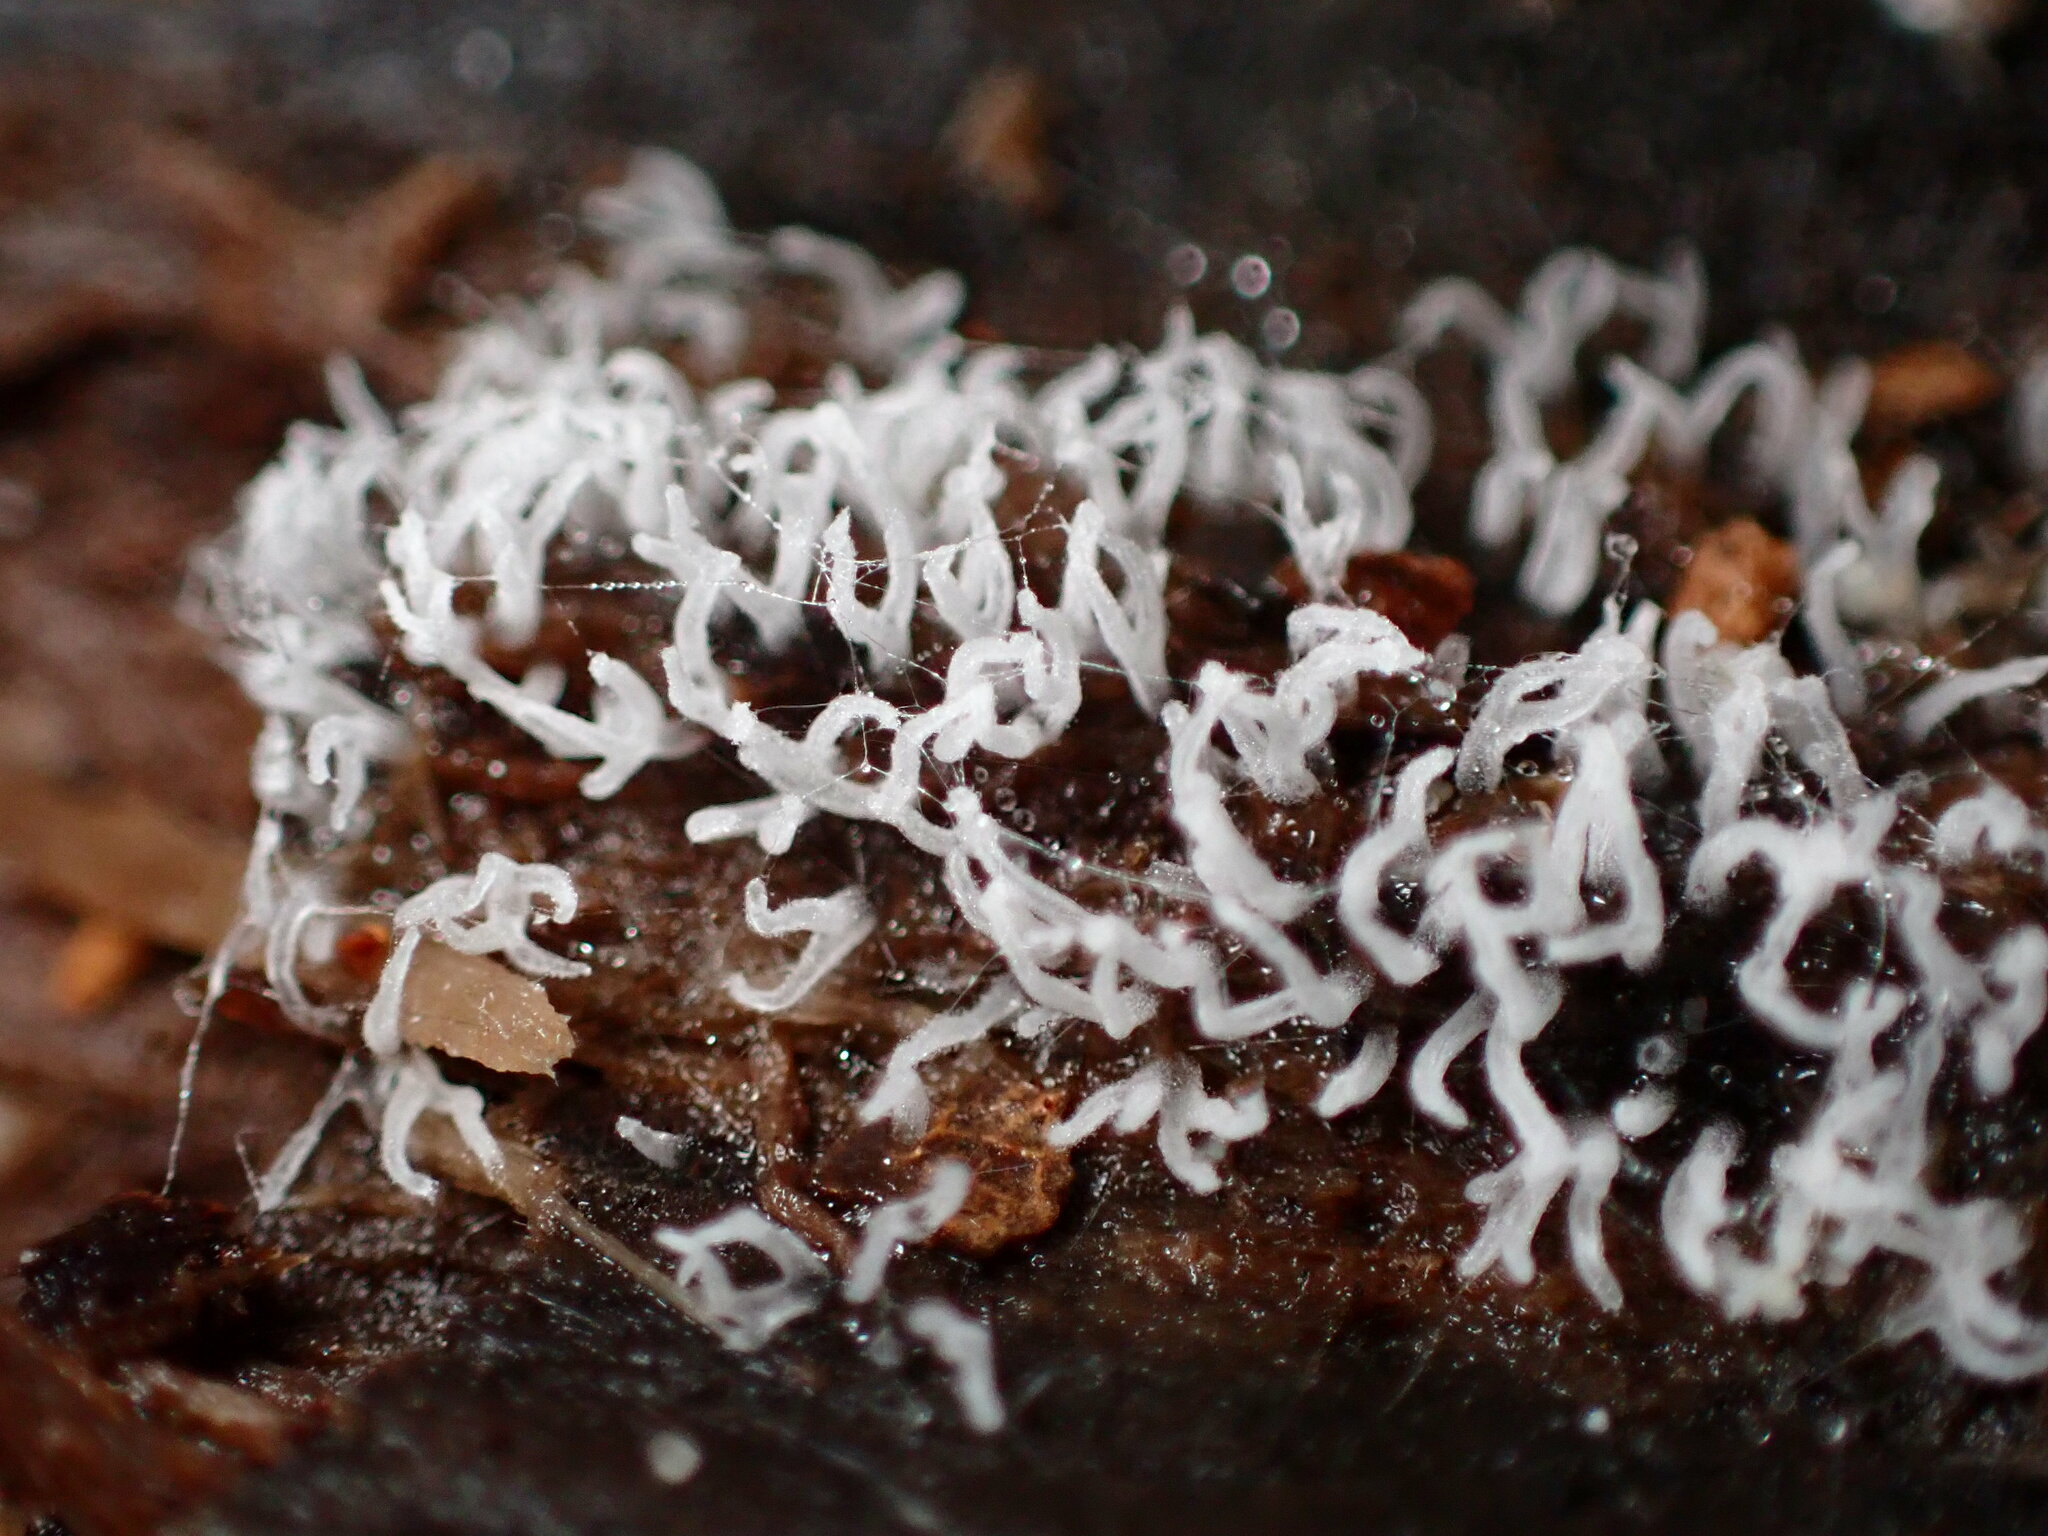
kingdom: Protozoa
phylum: Mycetozoa
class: Protosteliomycetes
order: Ceratiomyxales
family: Ceratiomyxaceae
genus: Ceratiomyxa
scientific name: Ceratiomyxa fruticulosa
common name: Honeycomb coral slime mold
